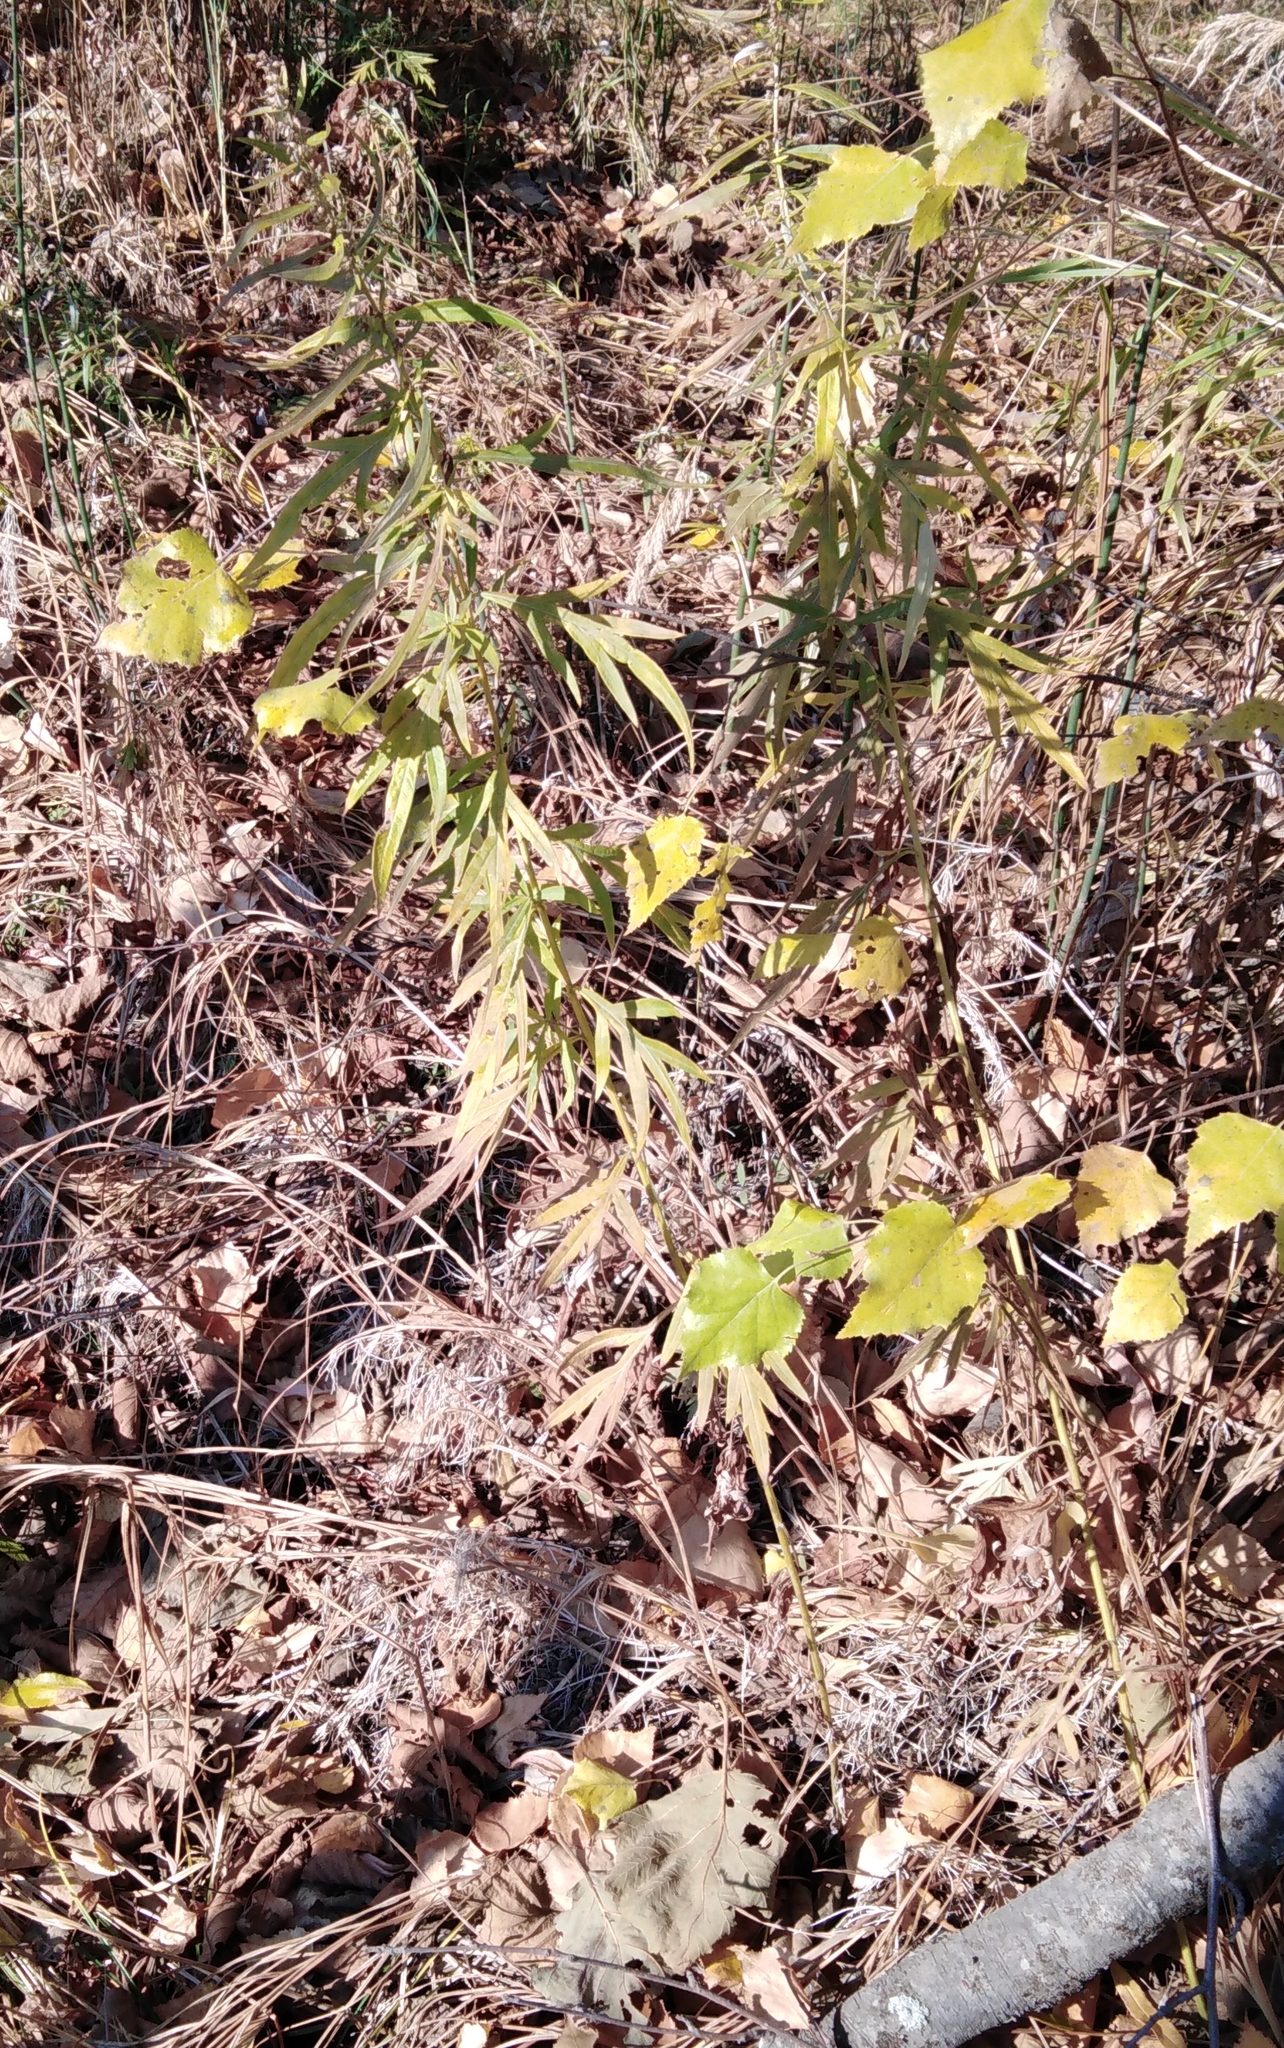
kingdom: Plantae
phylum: Tracheophyta
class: Magnoliopsida
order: Asterales
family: Asteraceae
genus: Artemisia
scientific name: Artemisia vulgaris
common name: Mugwort
